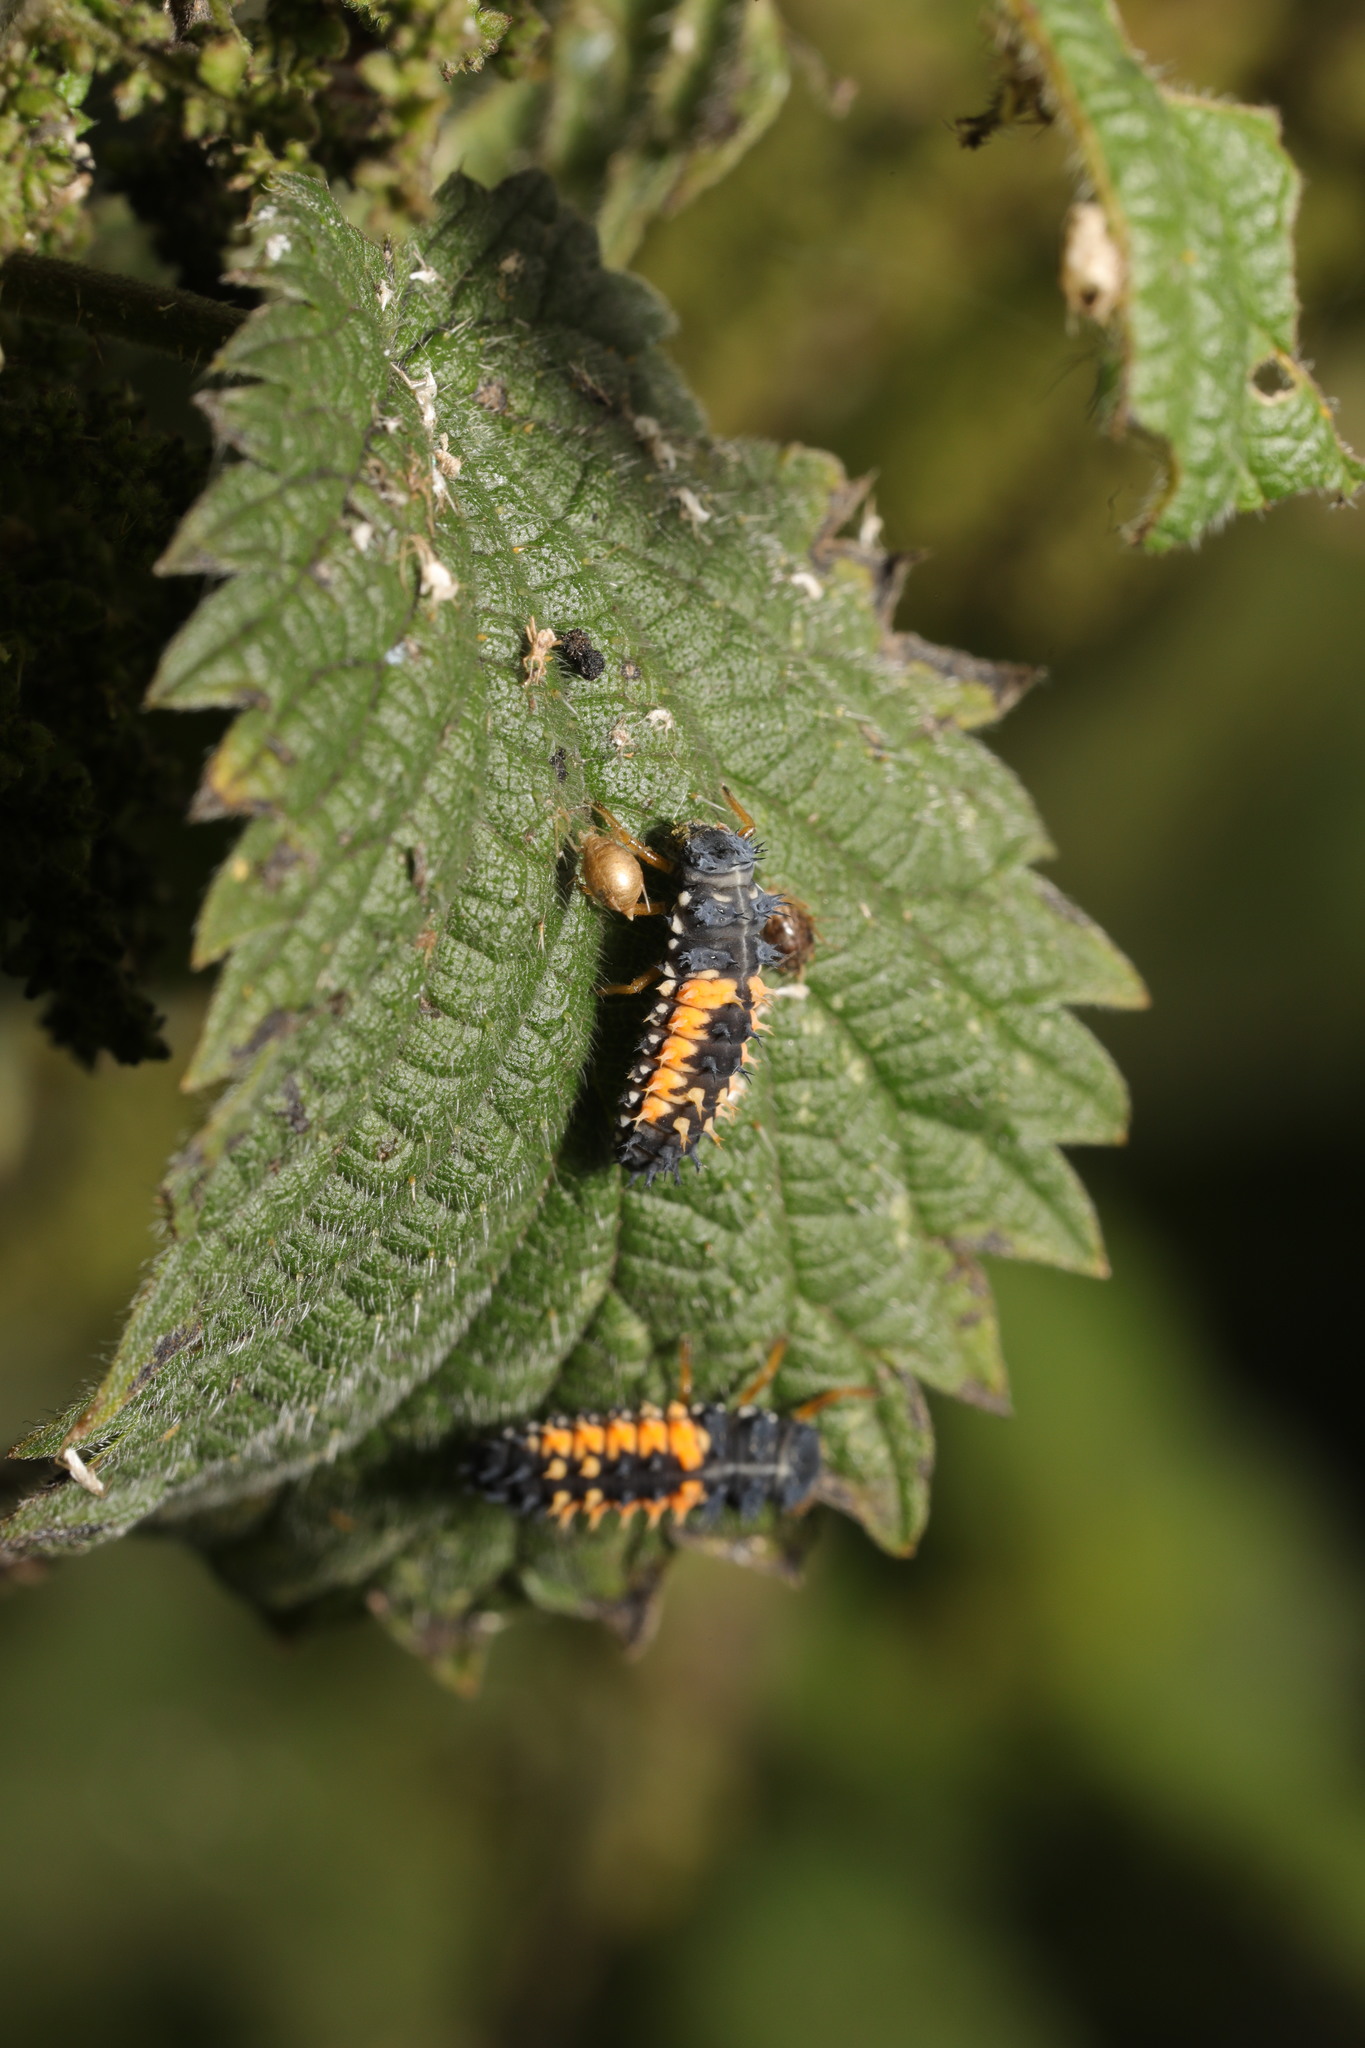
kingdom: Animalia
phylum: Arthropoda
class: Insecta
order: Coleoptera
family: Coccinellidae
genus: Harmonia
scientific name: Harmonia axyridis
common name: Harlequin ladybird
